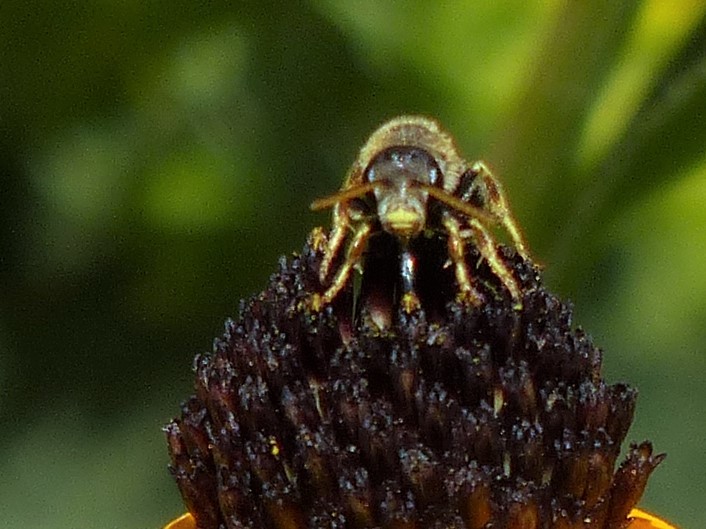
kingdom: Animalia
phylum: Arthropoda
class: Insecta
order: Hymenoptera
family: Halictidae
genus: Halictus
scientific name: Halictus ligatus
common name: Ligated furrow bee
